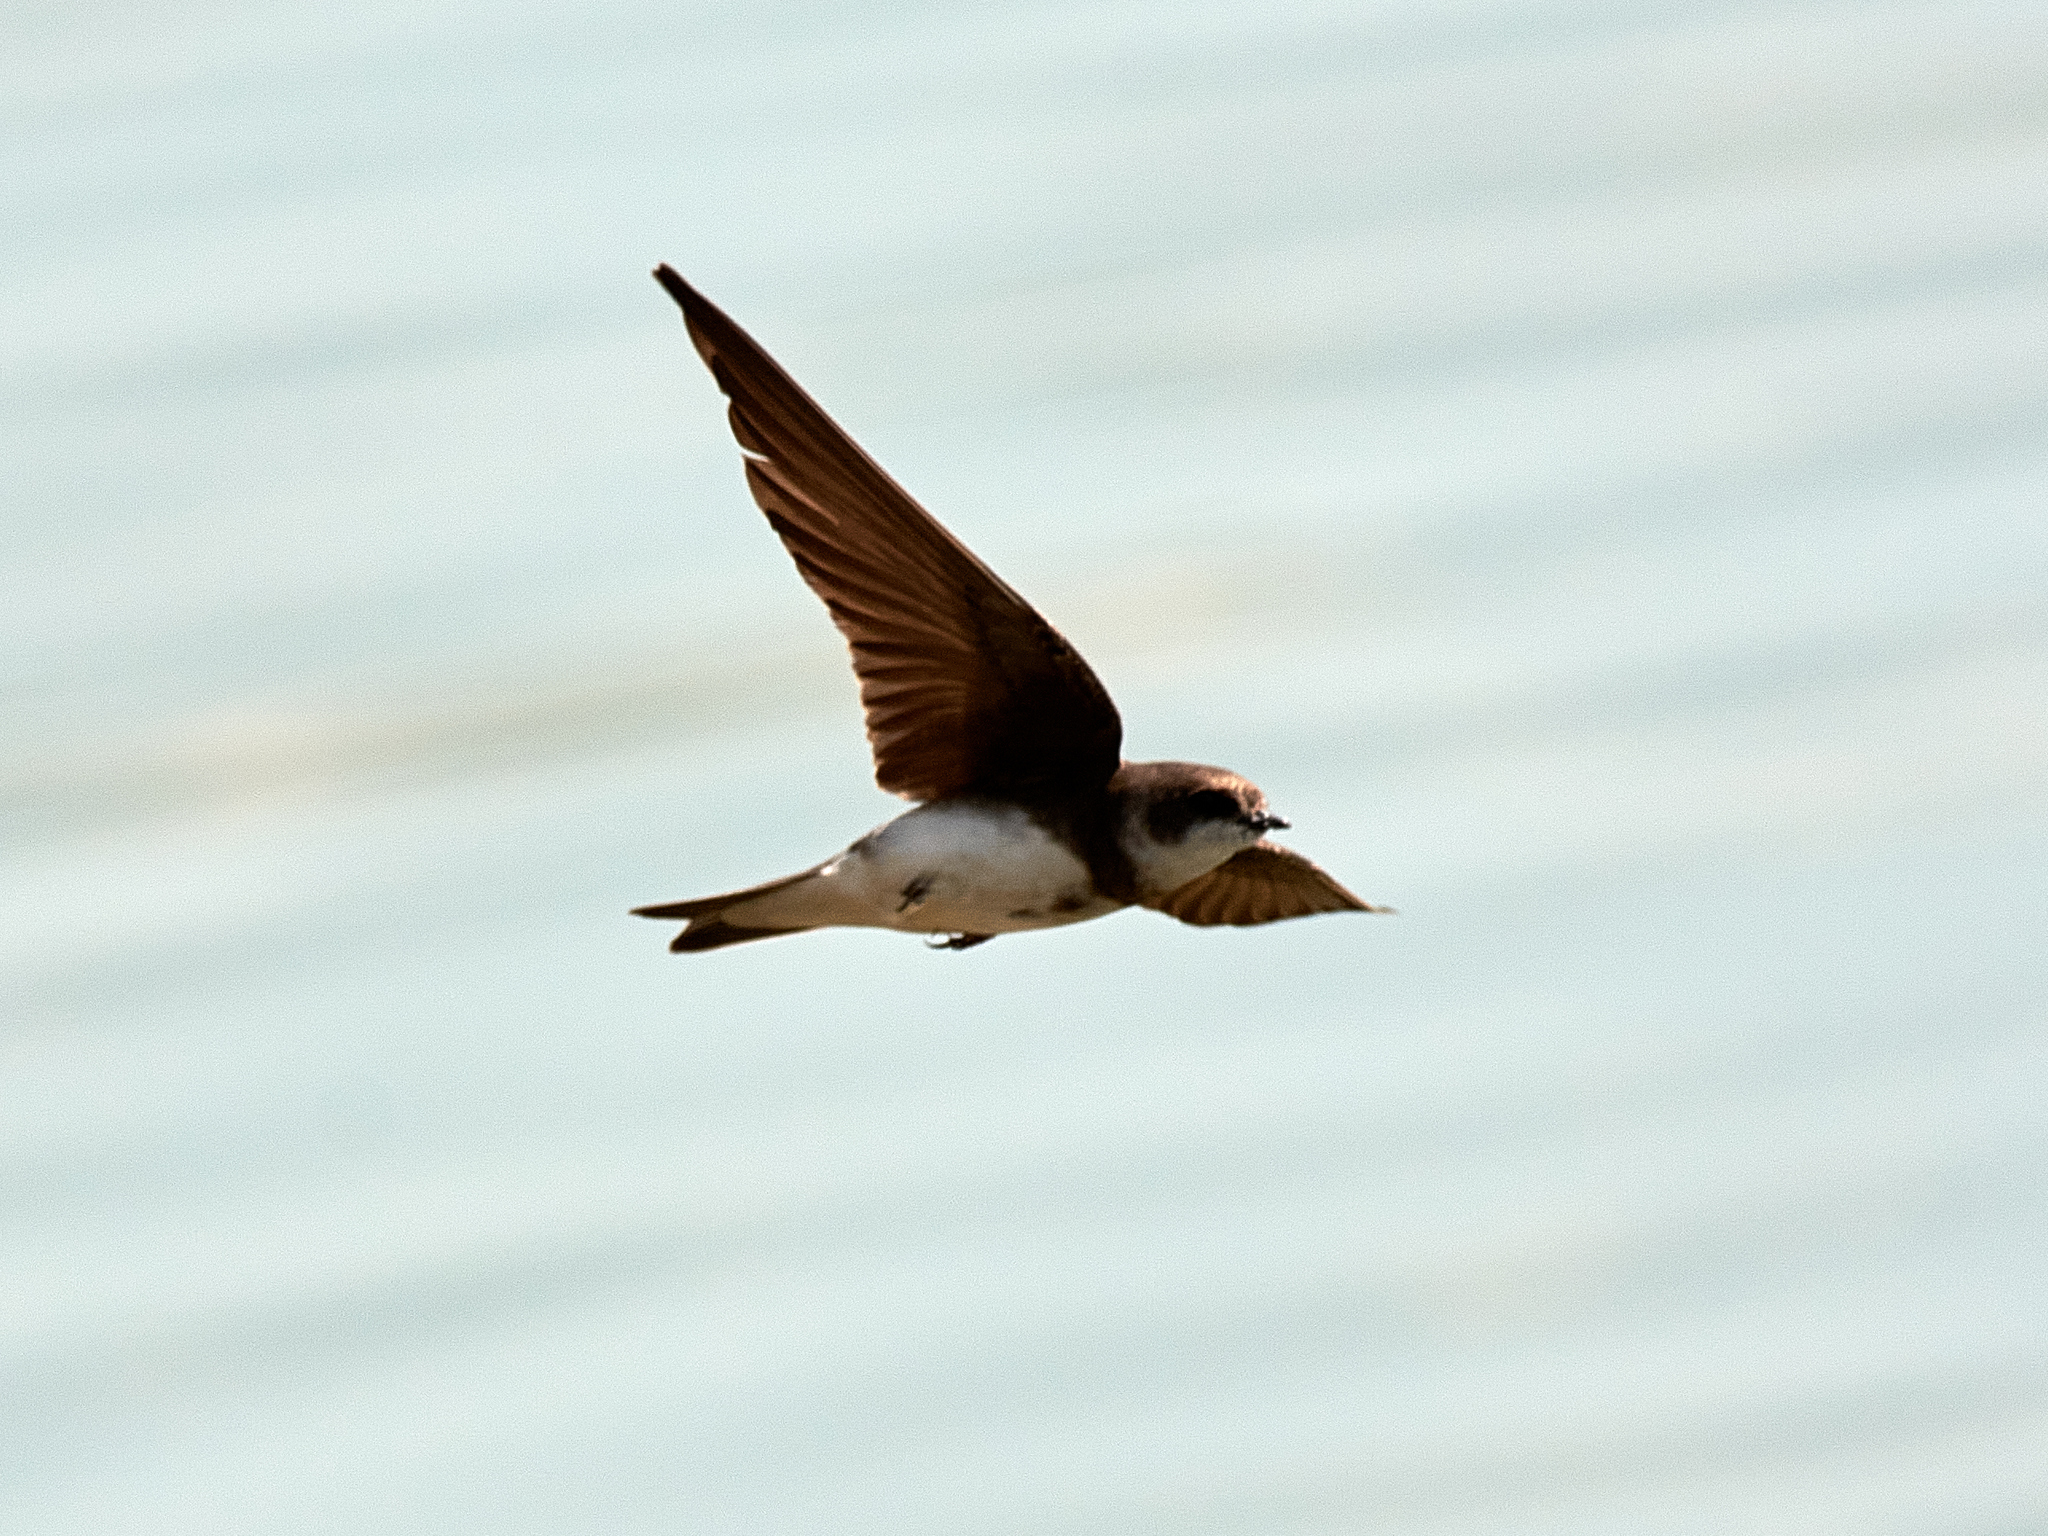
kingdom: Animalia
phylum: Chordata
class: Aves
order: Passeriformes
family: Hirundinidae
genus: Riparia
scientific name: Riparia riparia
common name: Sand martin
